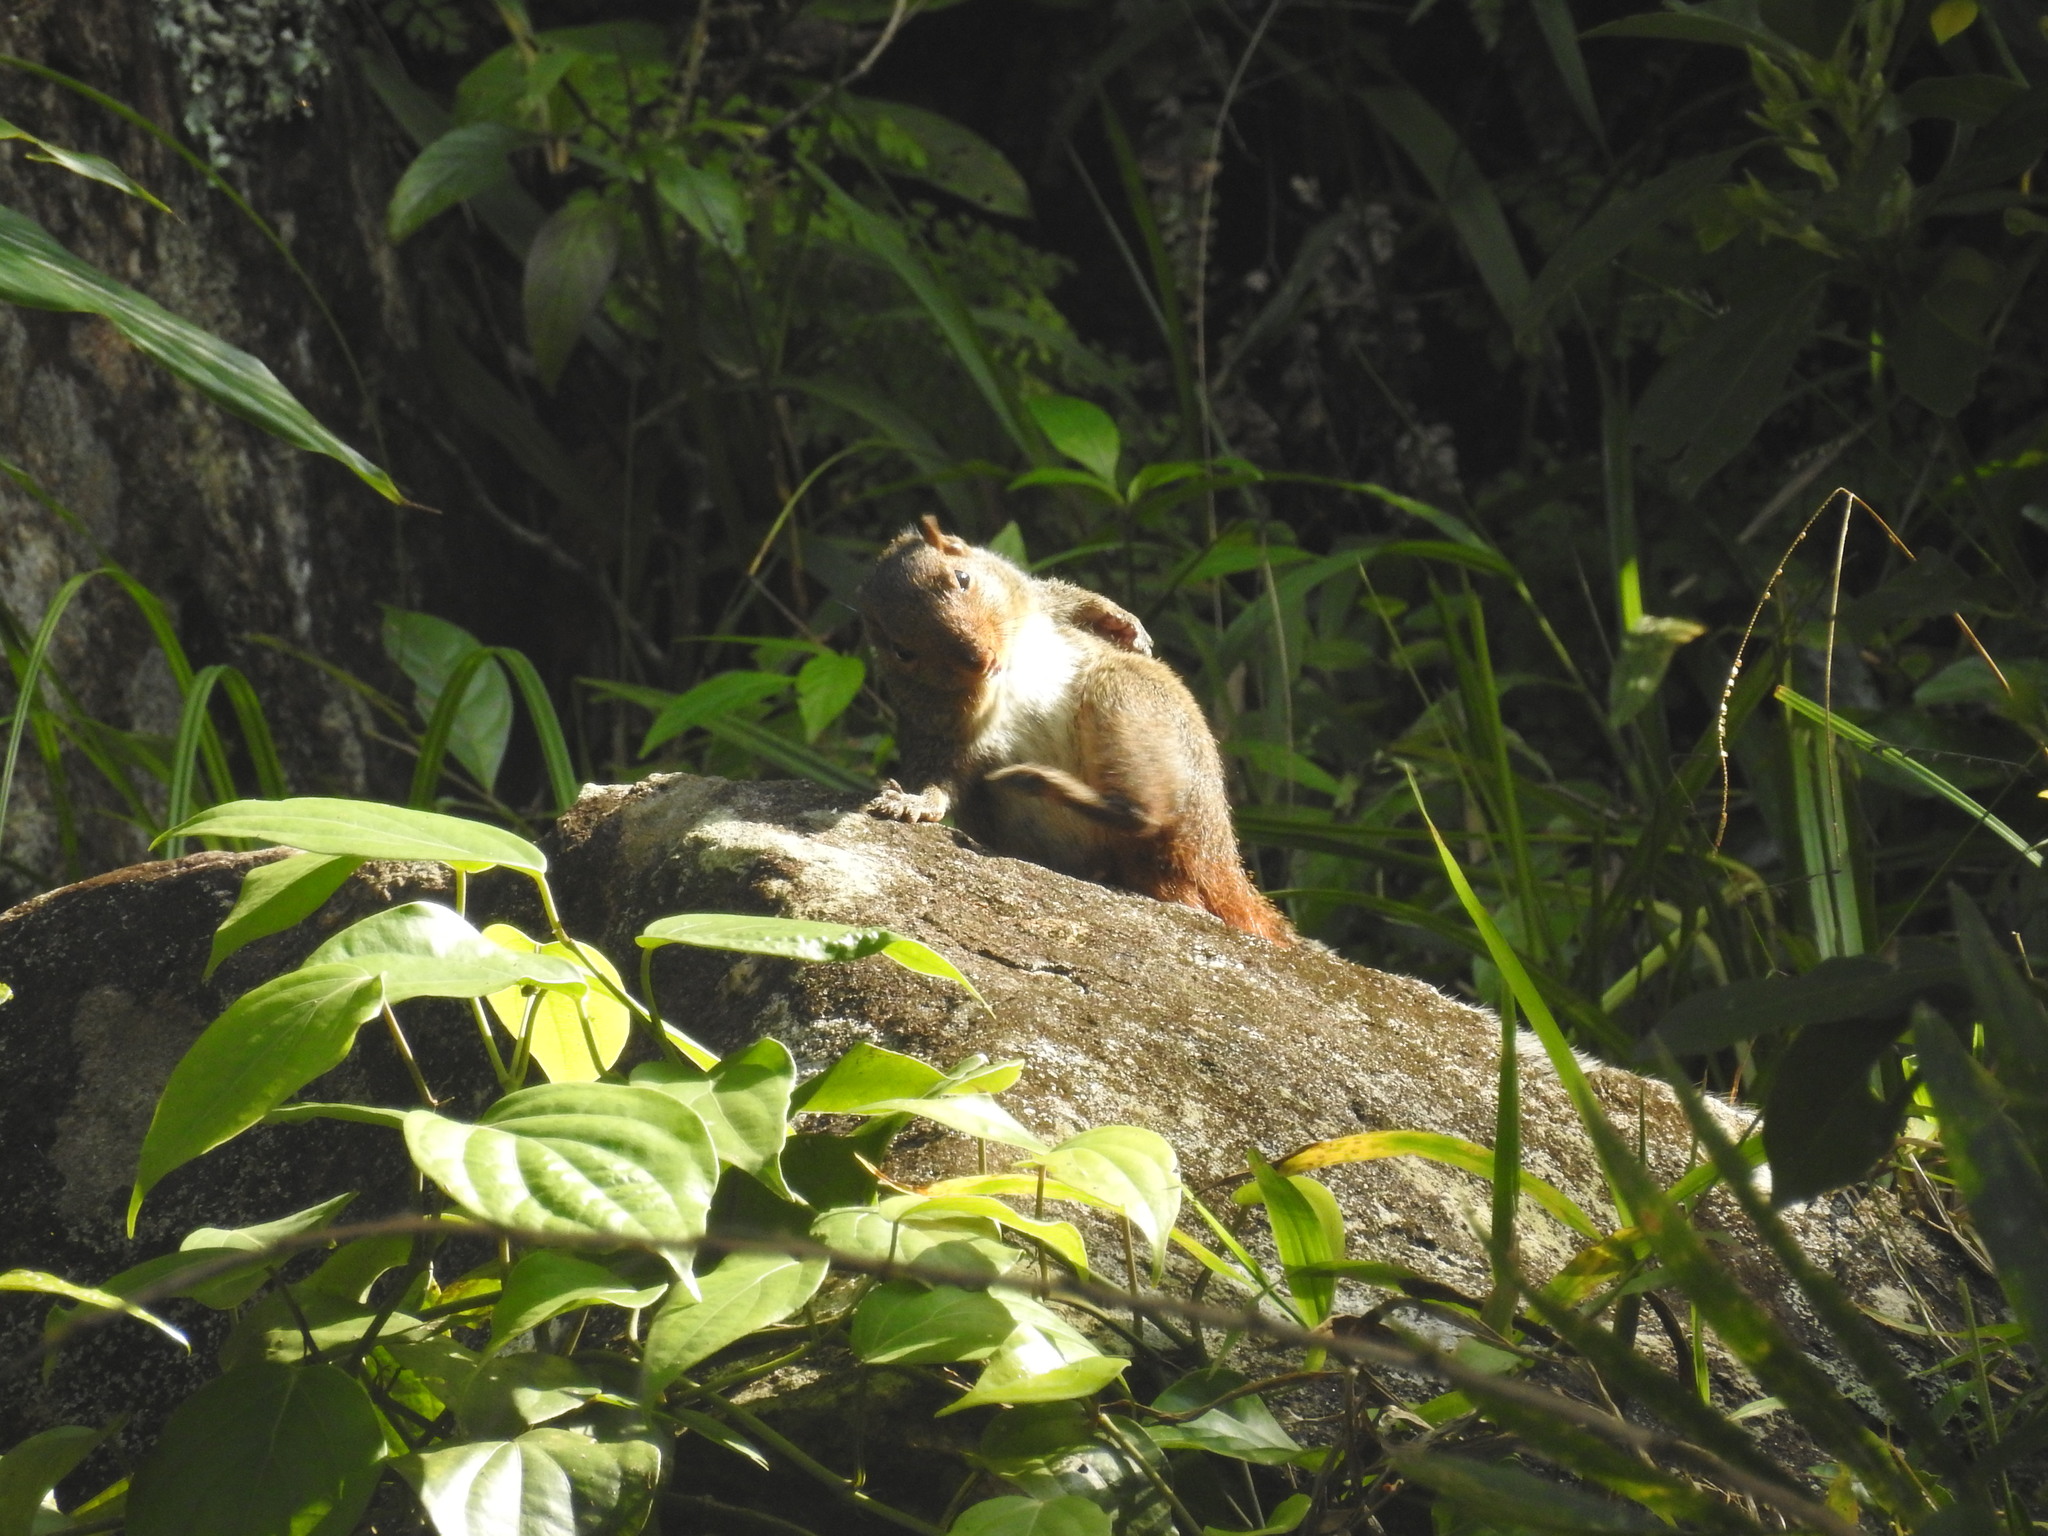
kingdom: Animalia
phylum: Chordata
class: Mammalia
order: Rodentia
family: Sciuridae
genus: Funambulus
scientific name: Funambulus tristriatus
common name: Jungle palm squirrel
